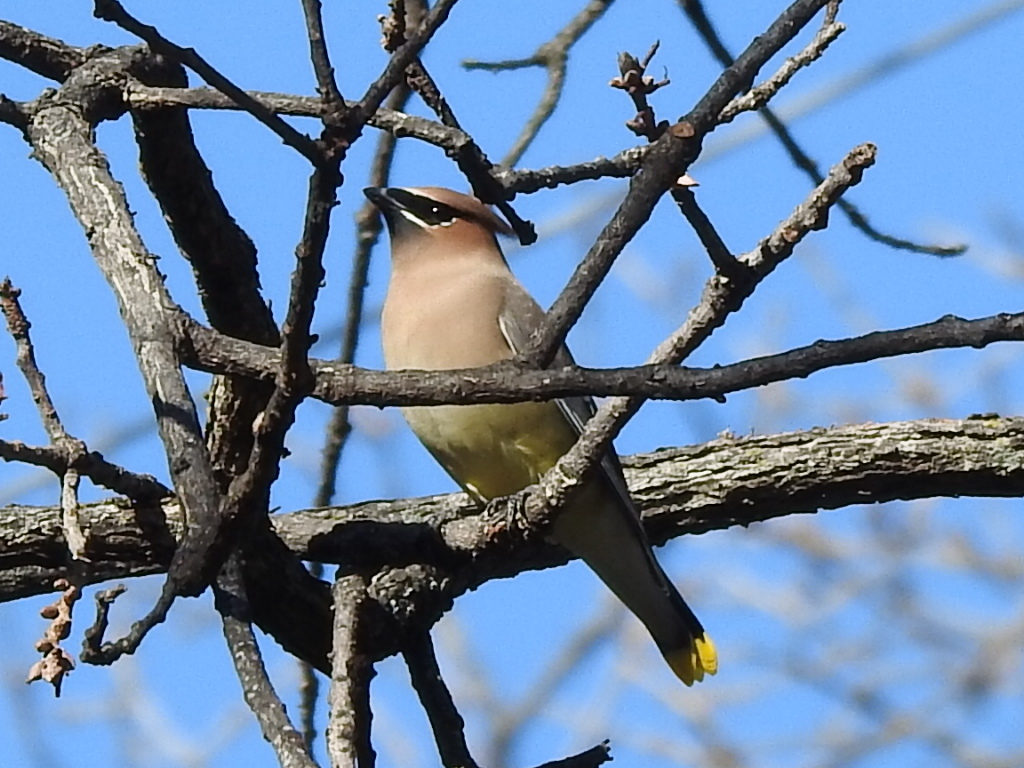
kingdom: Animalia
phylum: Chordata
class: Aves
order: Passeriformes
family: Bombycillidae
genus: Bombycilla
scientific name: Bombycilla cedrorum
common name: Cedar waxwing
